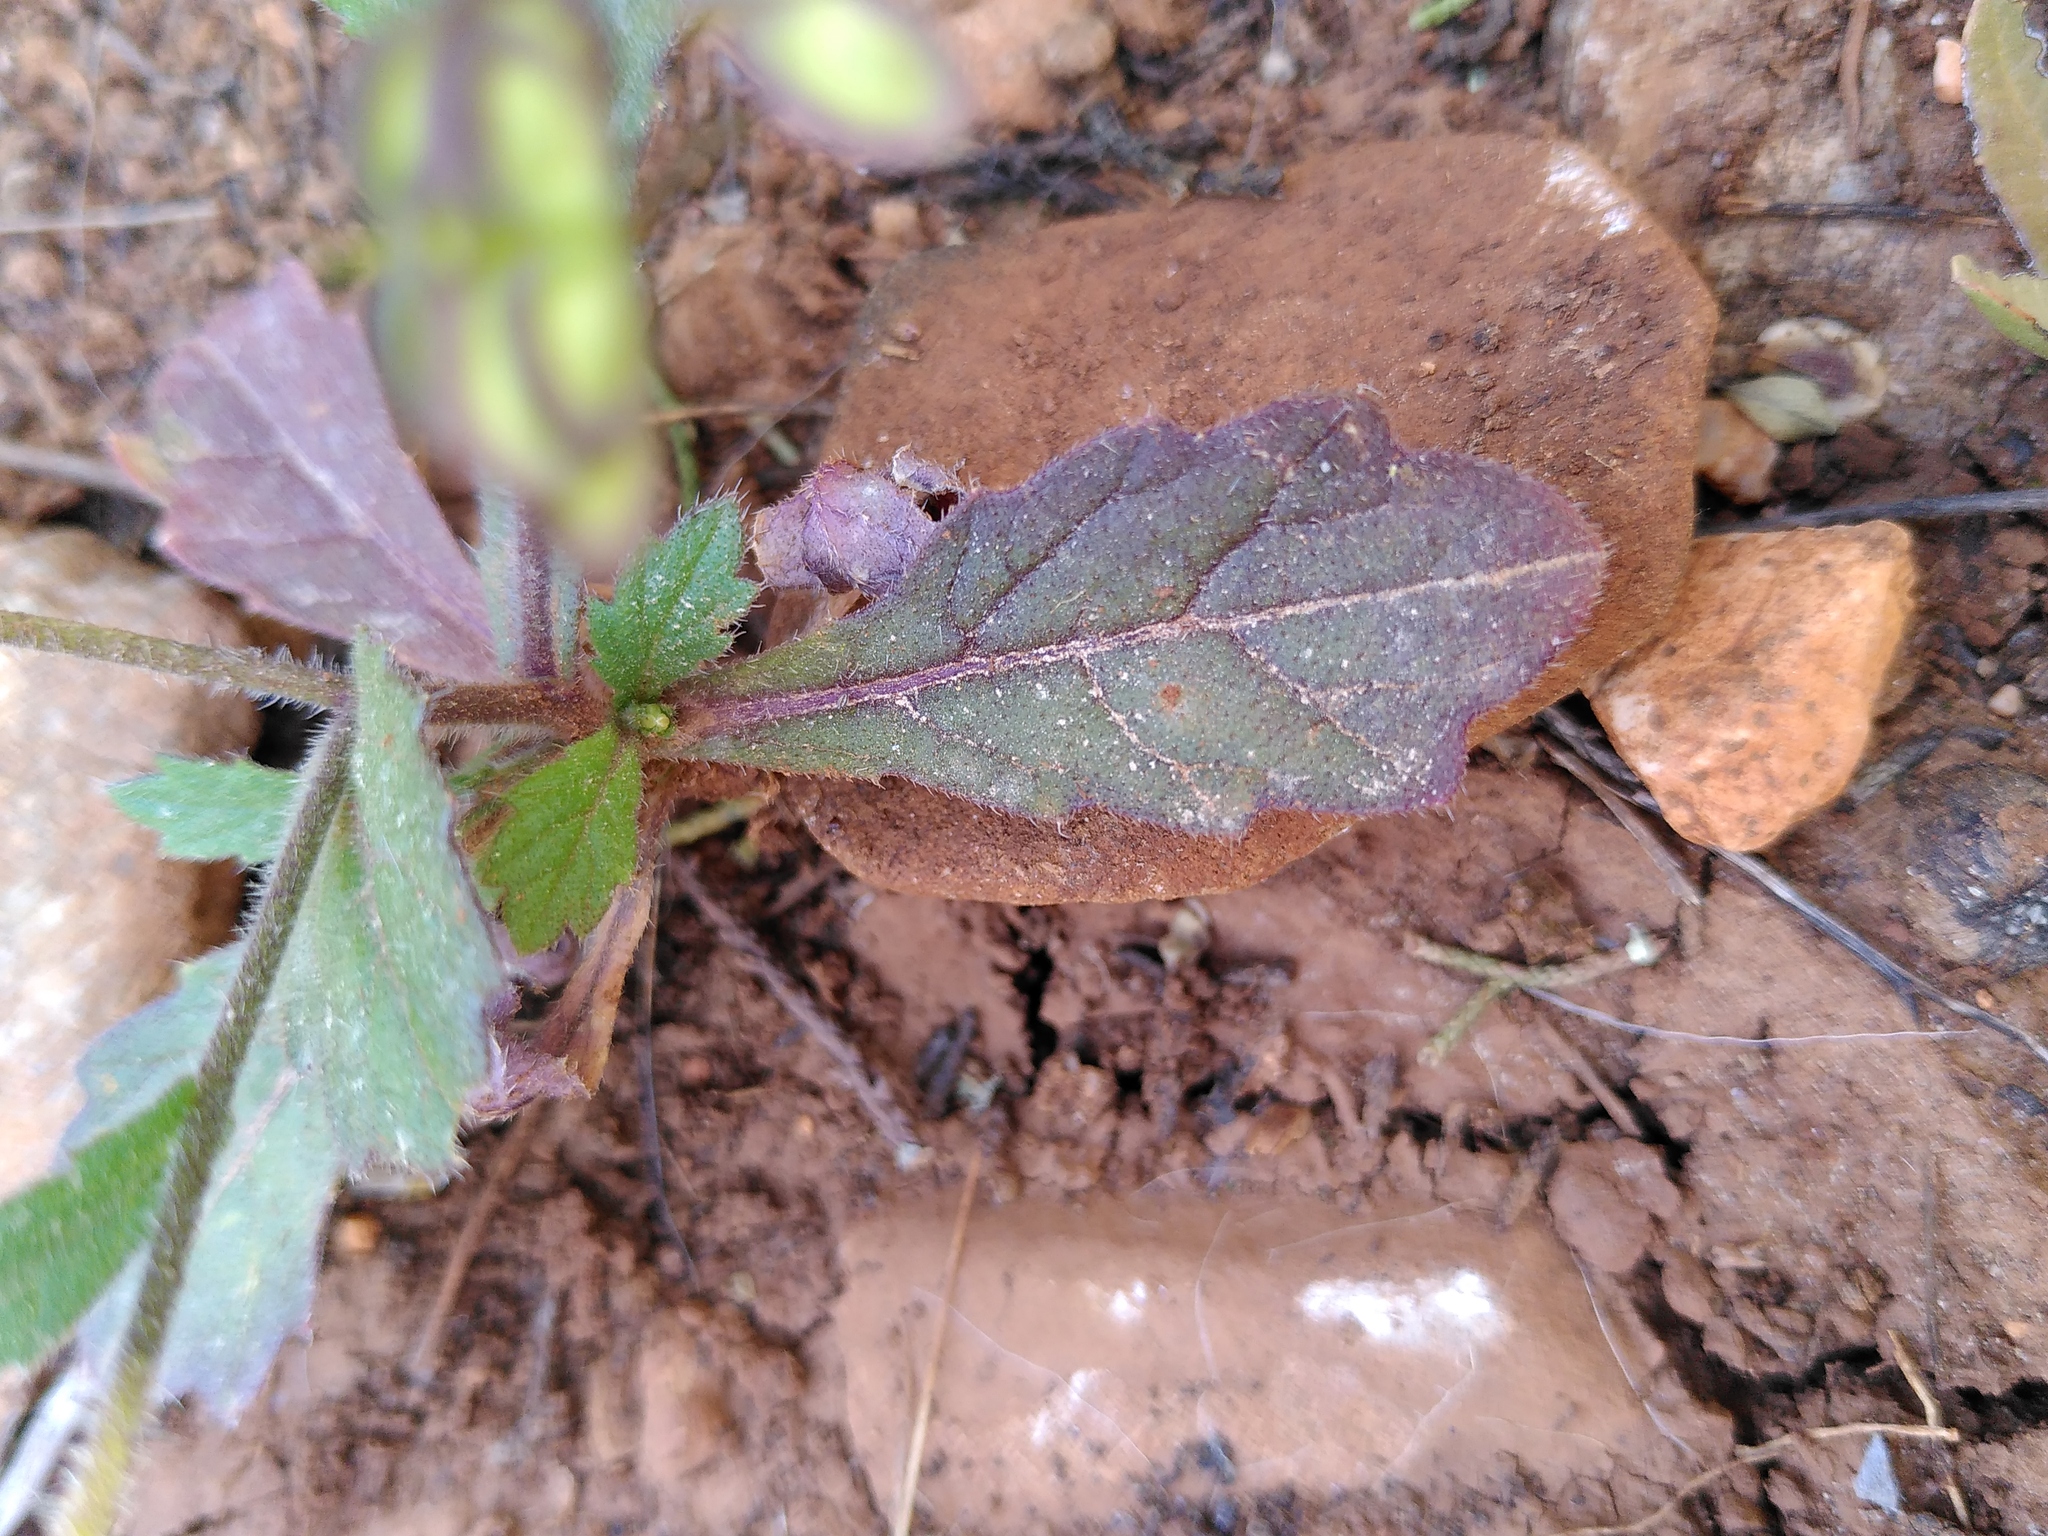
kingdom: Plantae
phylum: Tracheophyta
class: Magnoliopsida
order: Brassicales
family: Brassicaceae
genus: Biscutella
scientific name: Biscutella didyma
